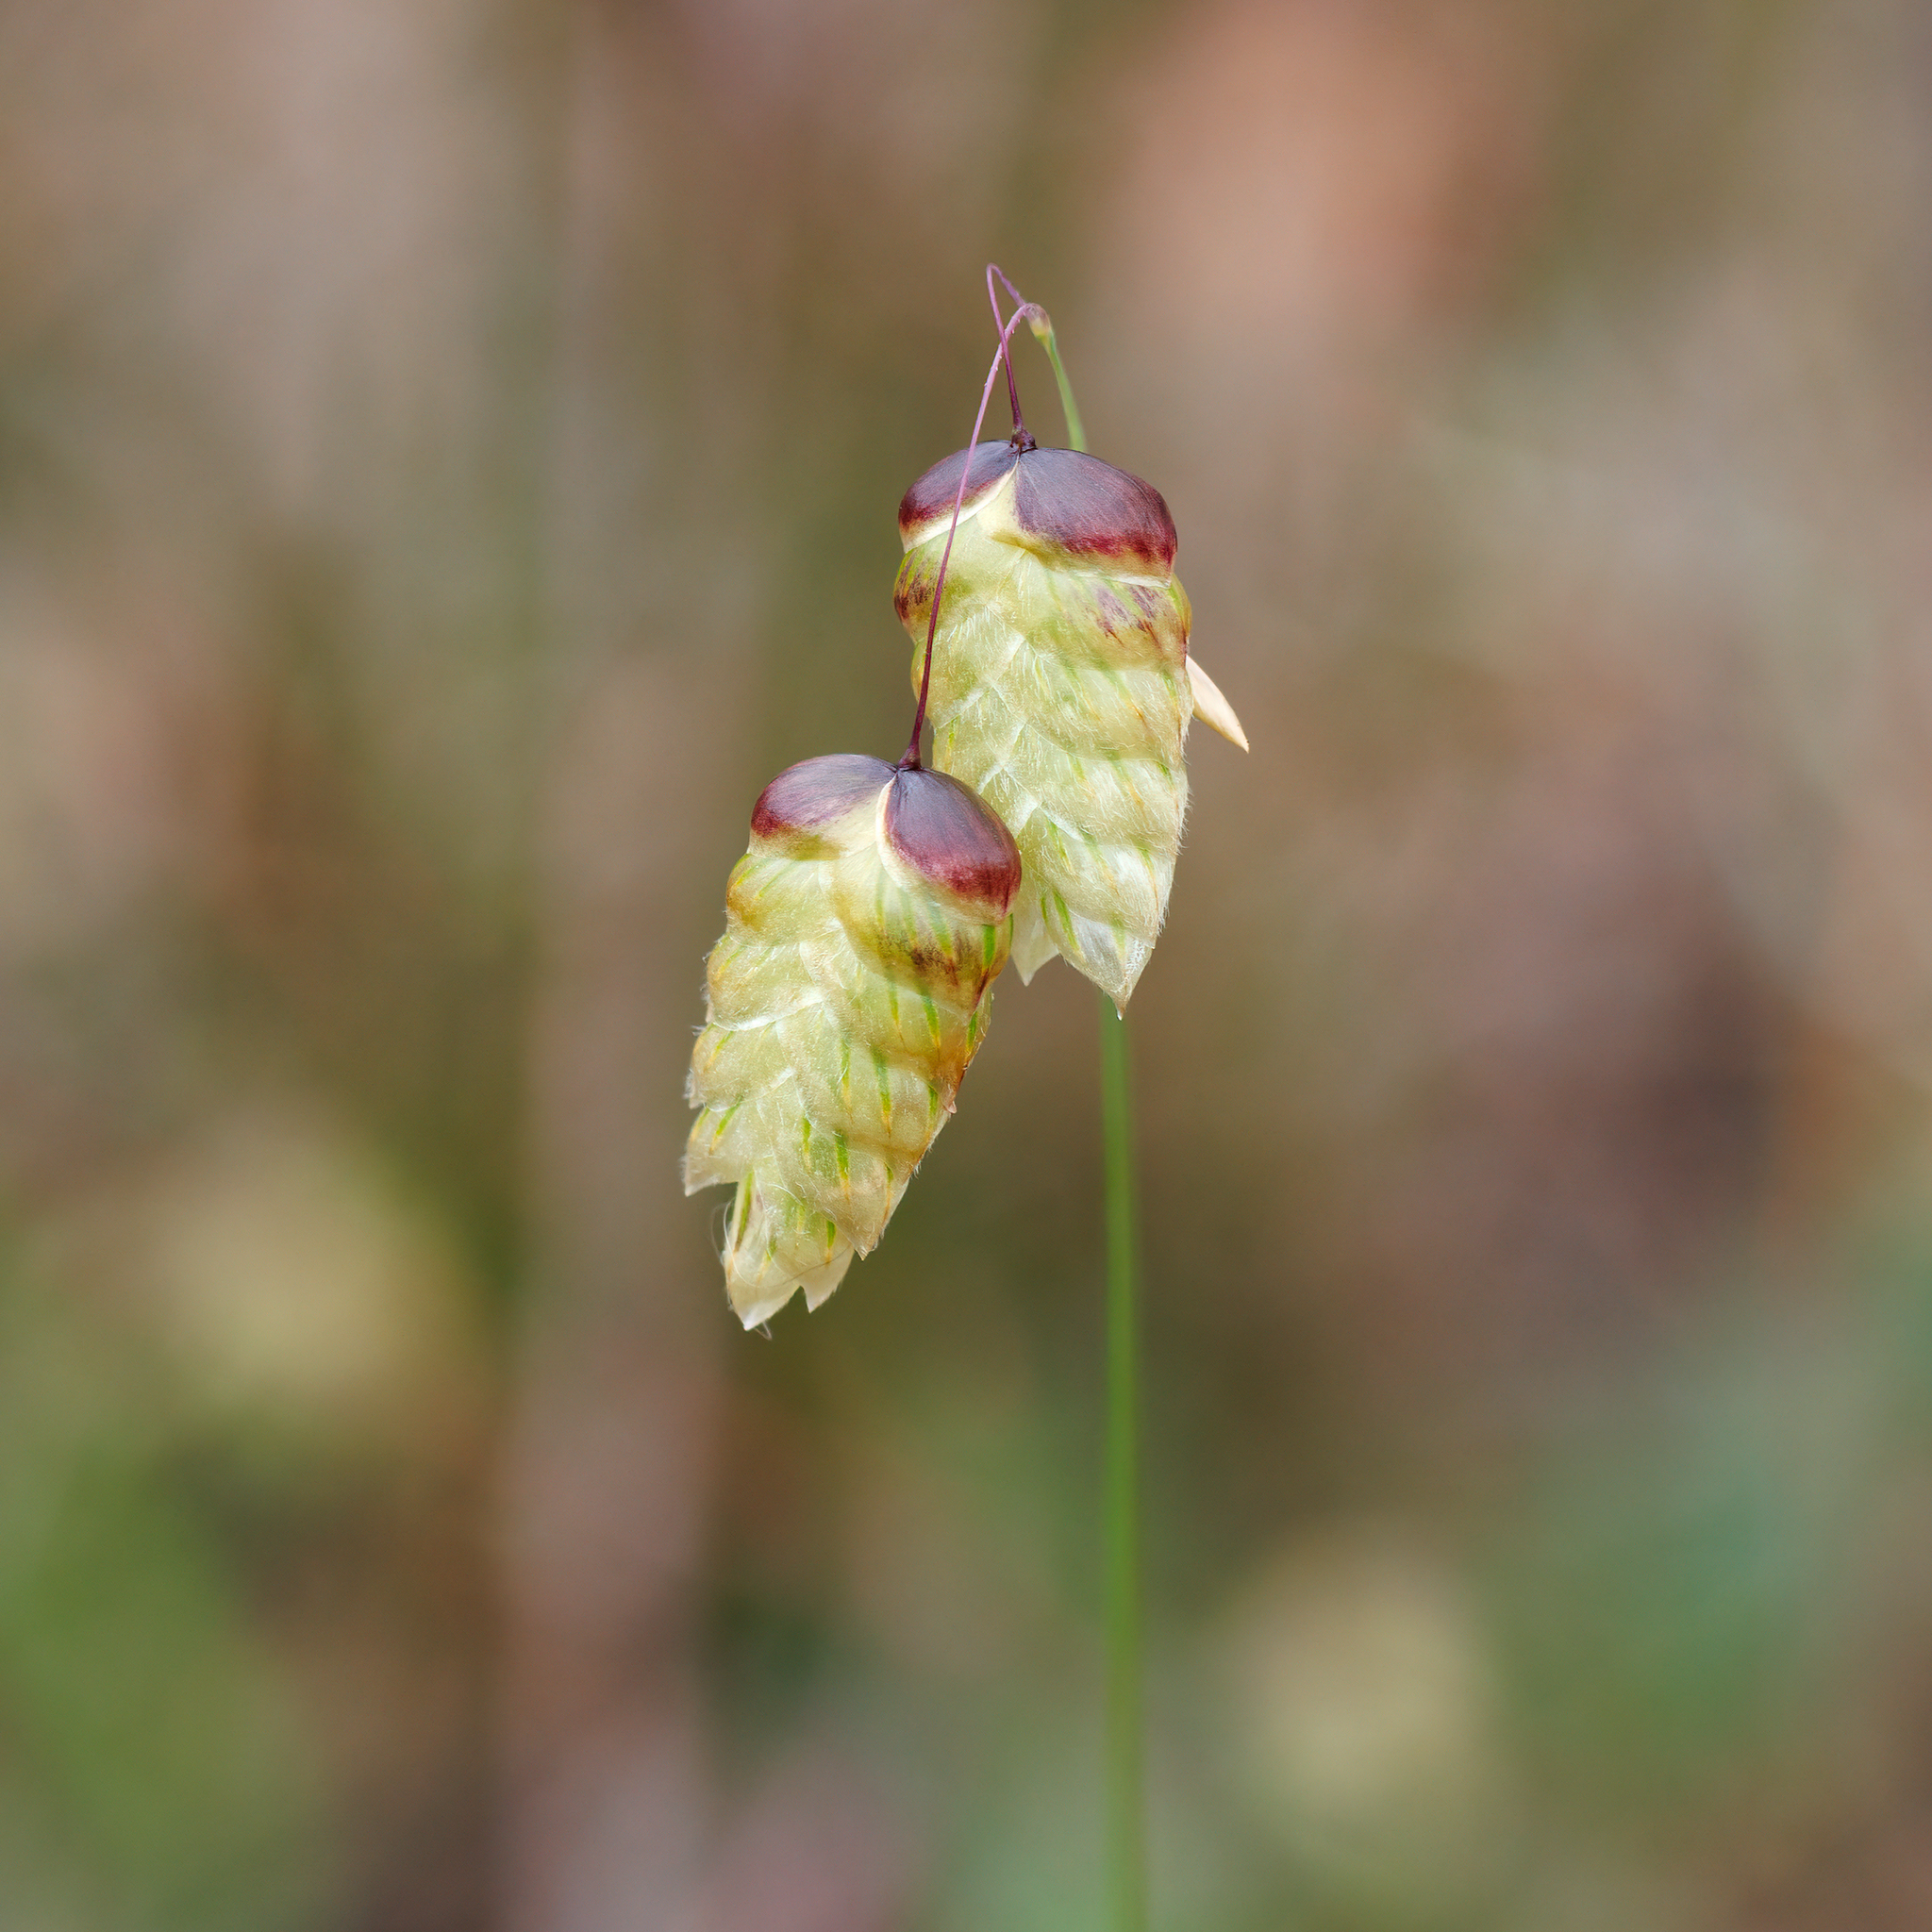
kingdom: Plantae
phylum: Tracheophyta
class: Liliopsida
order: Poales
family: Poaceae
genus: Briza
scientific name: Briza maxima
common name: Big quakinggrass
